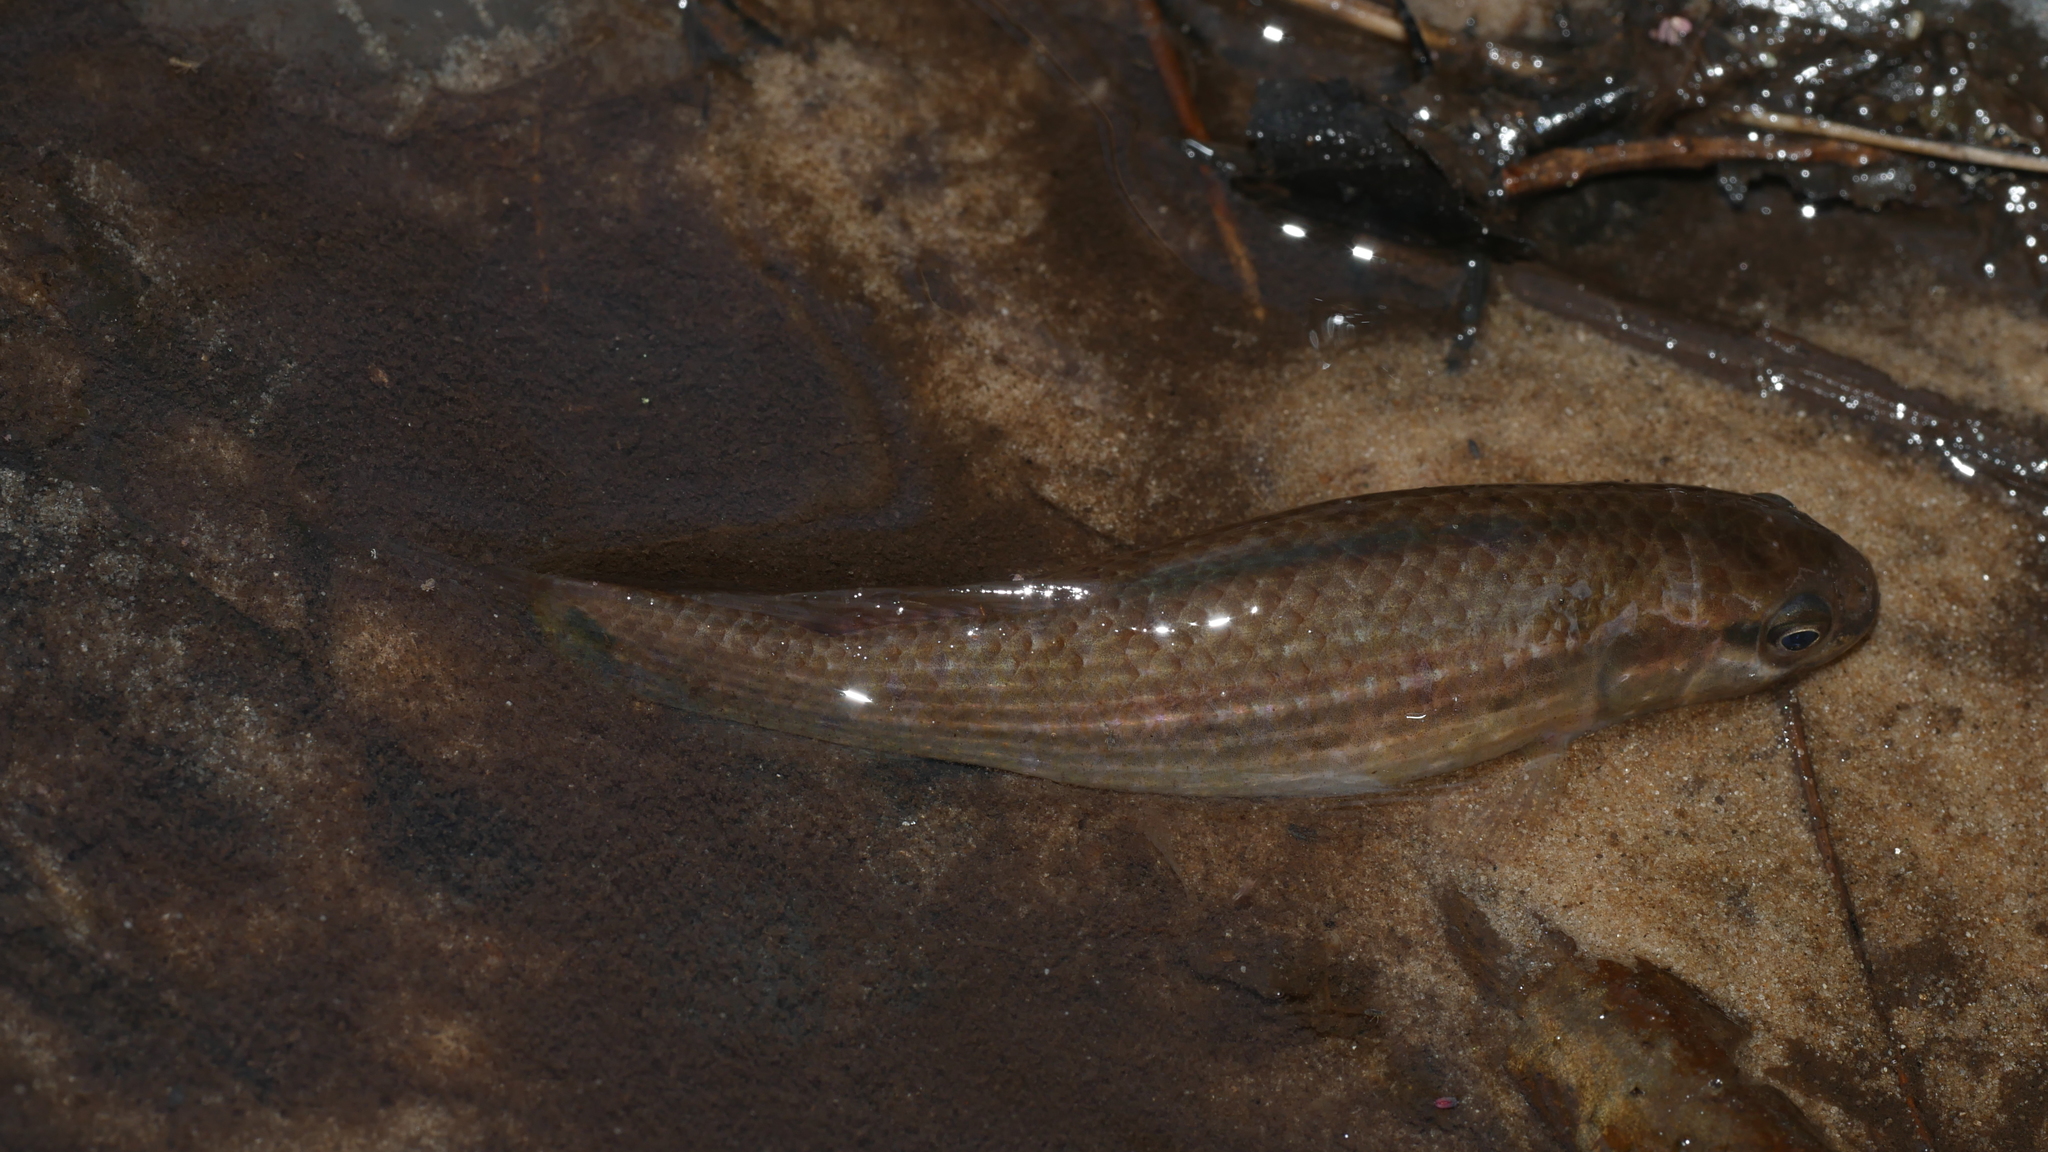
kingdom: Animalia
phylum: Chordata
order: Esociformes
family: Umbridae
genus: Umbra
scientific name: Umbra pygmaea
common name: Eastern mudminnow
